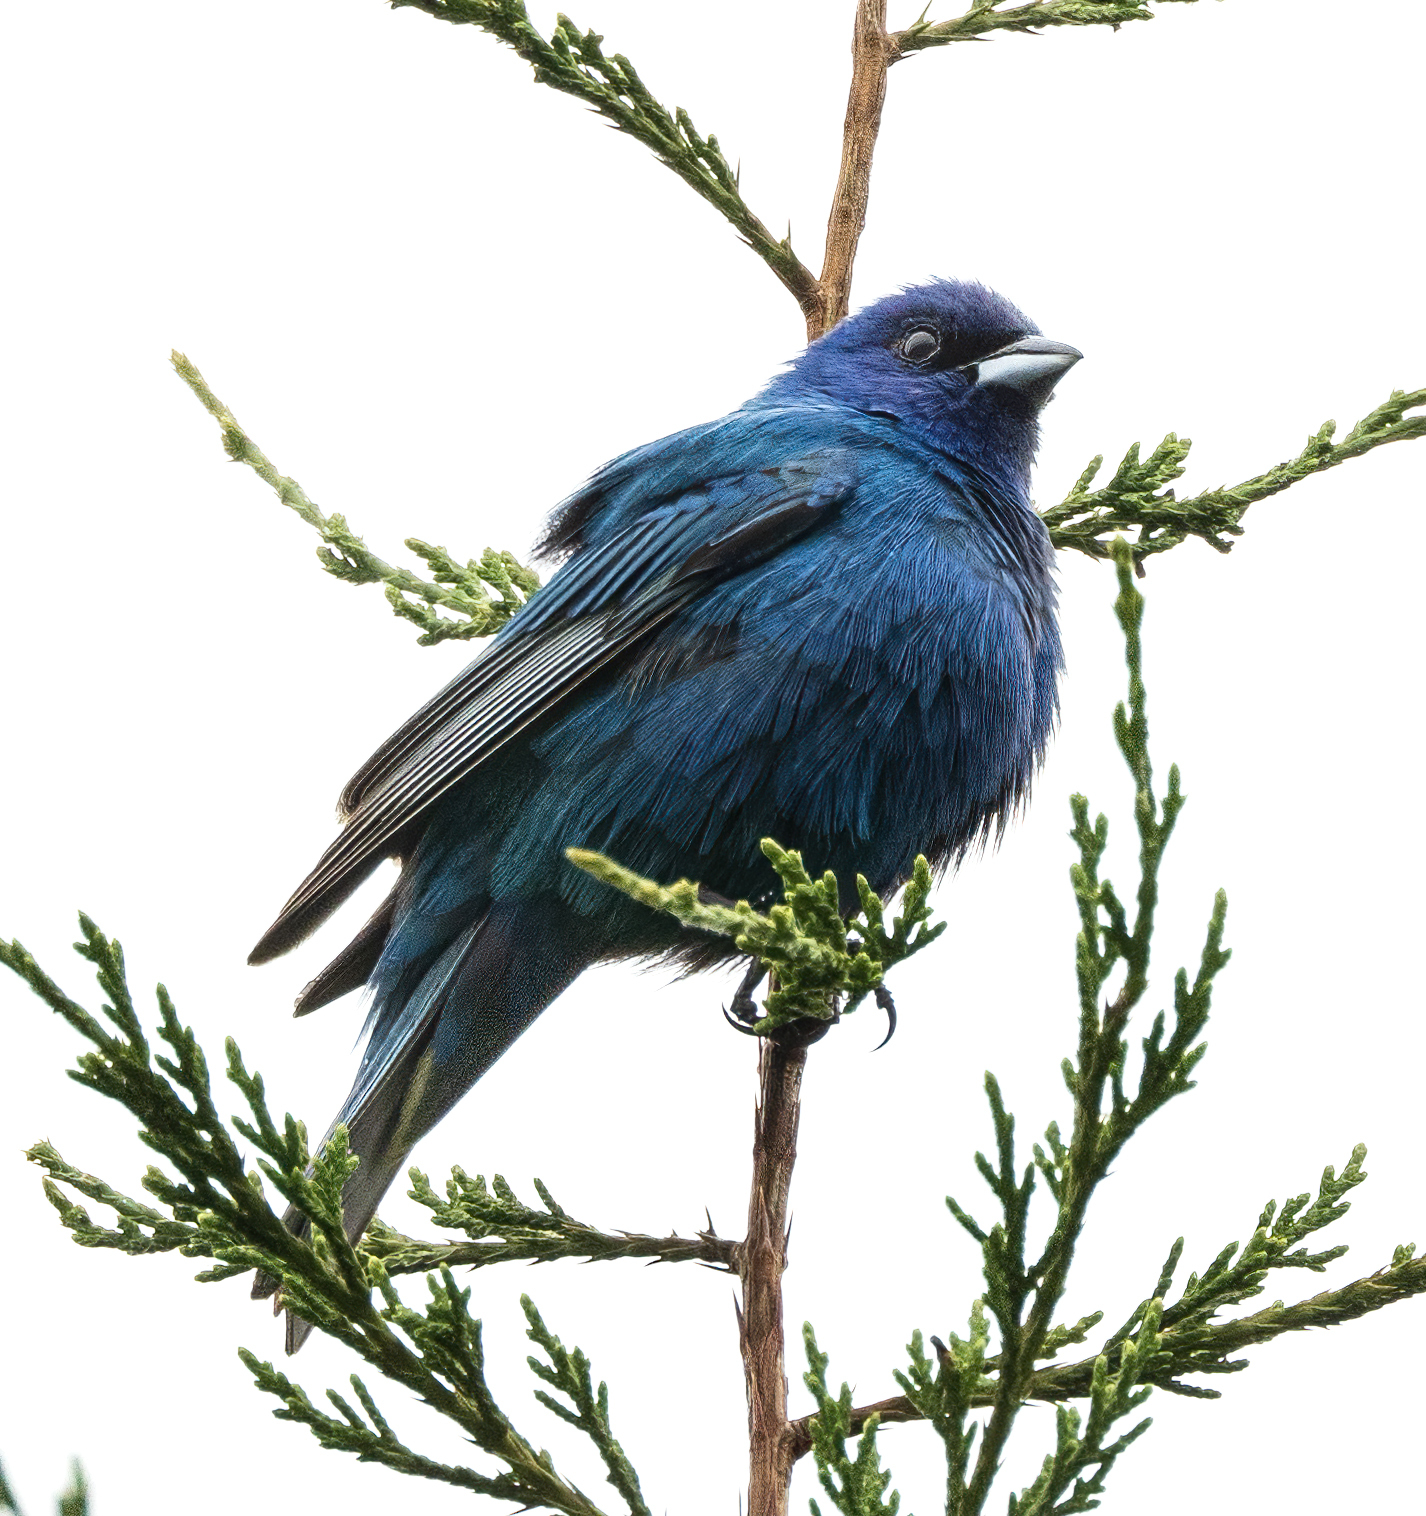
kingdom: Animalia
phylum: Chordata
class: Aves
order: Passeriformes
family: Cardinalidae
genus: Passerina
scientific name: Passerina cyanea
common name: Indigo bunting
